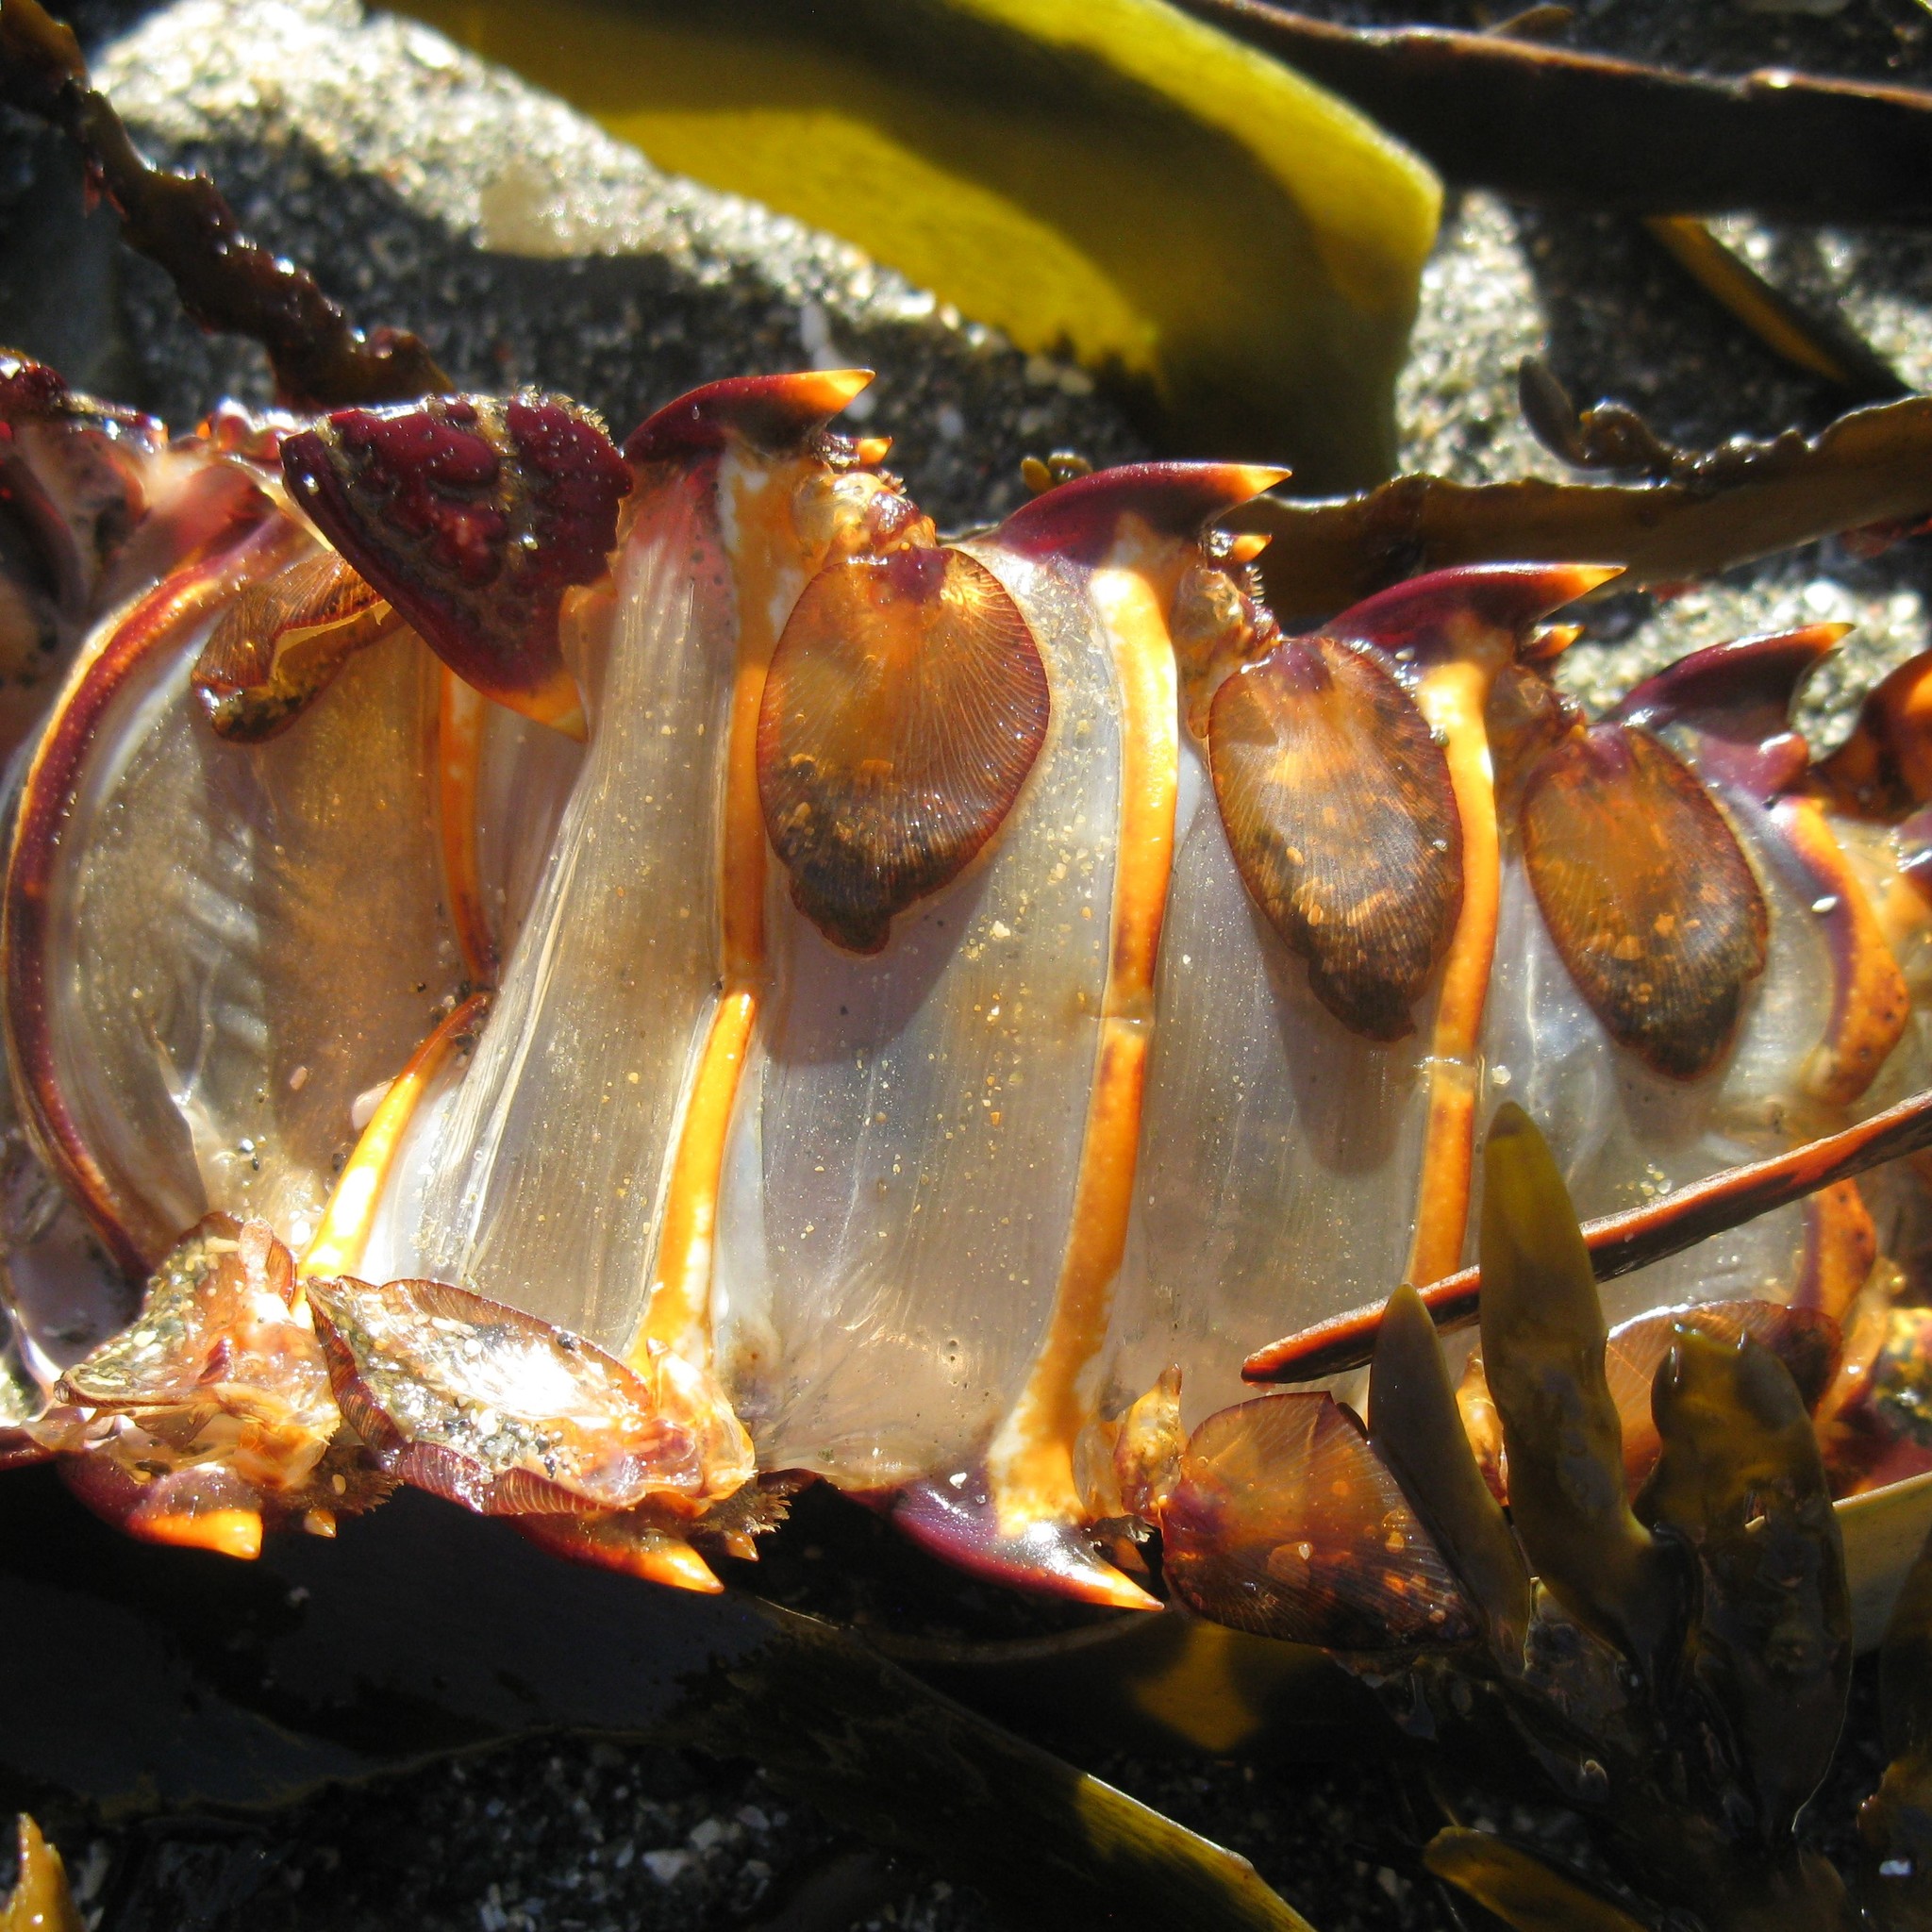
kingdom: Animalia
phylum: Arthropoda
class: Malacostraca
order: Decapoda
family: Palinuridae
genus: Jasus
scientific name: Jasus edwardsii
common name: Red rock lobster
